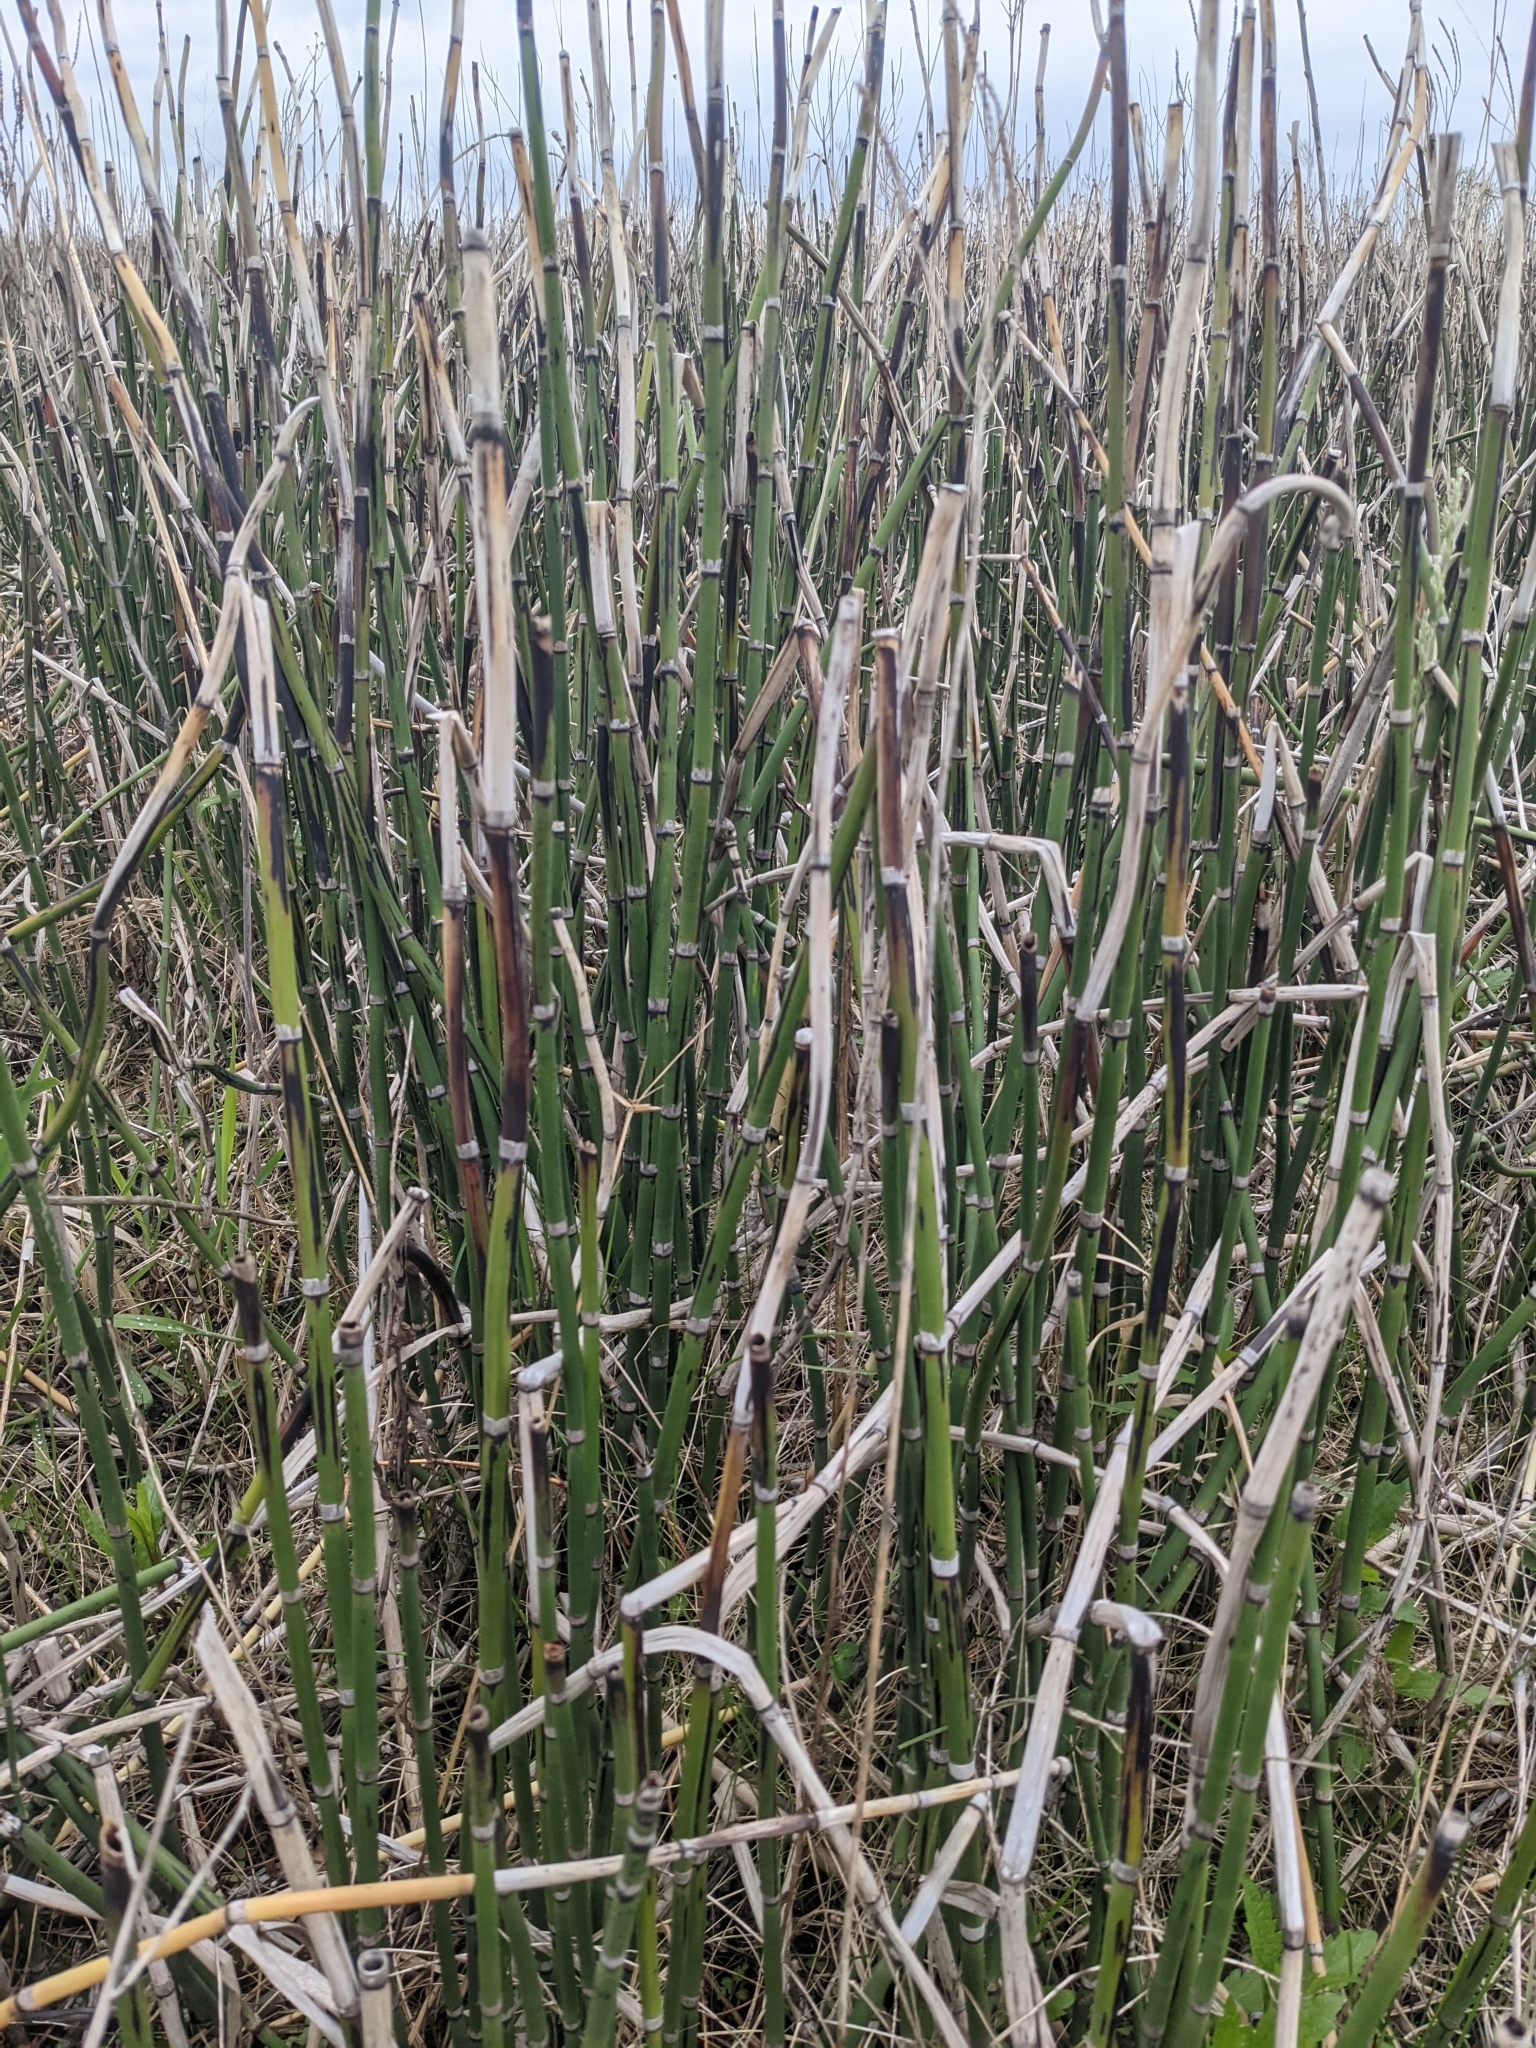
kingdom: Plantae
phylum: Tracheophyta
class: Polypodiopsida
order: Equisetales
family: Equisetaceae
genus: Equisetum
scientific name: Equisetum hyemale
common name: Rough horsetail
